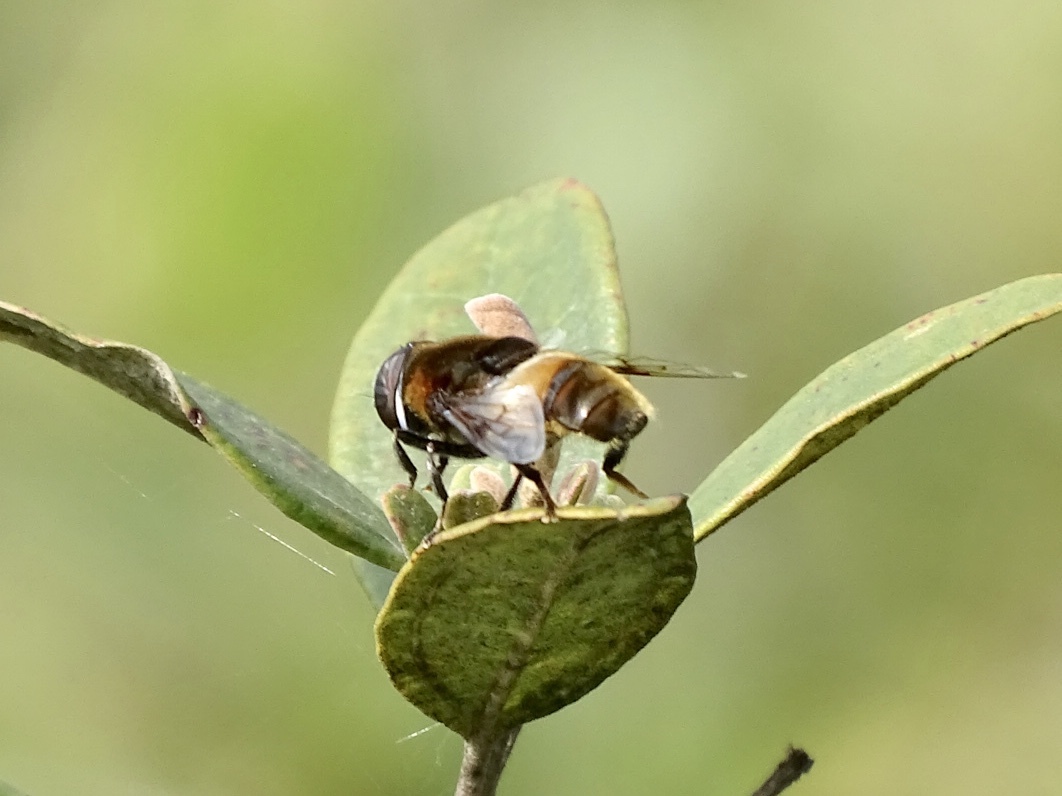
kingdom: Animalia
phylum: Arthropoda
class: Insecta
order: Diptera
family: Syrphidae
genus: Phytomia
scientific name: Phytomia zonata
